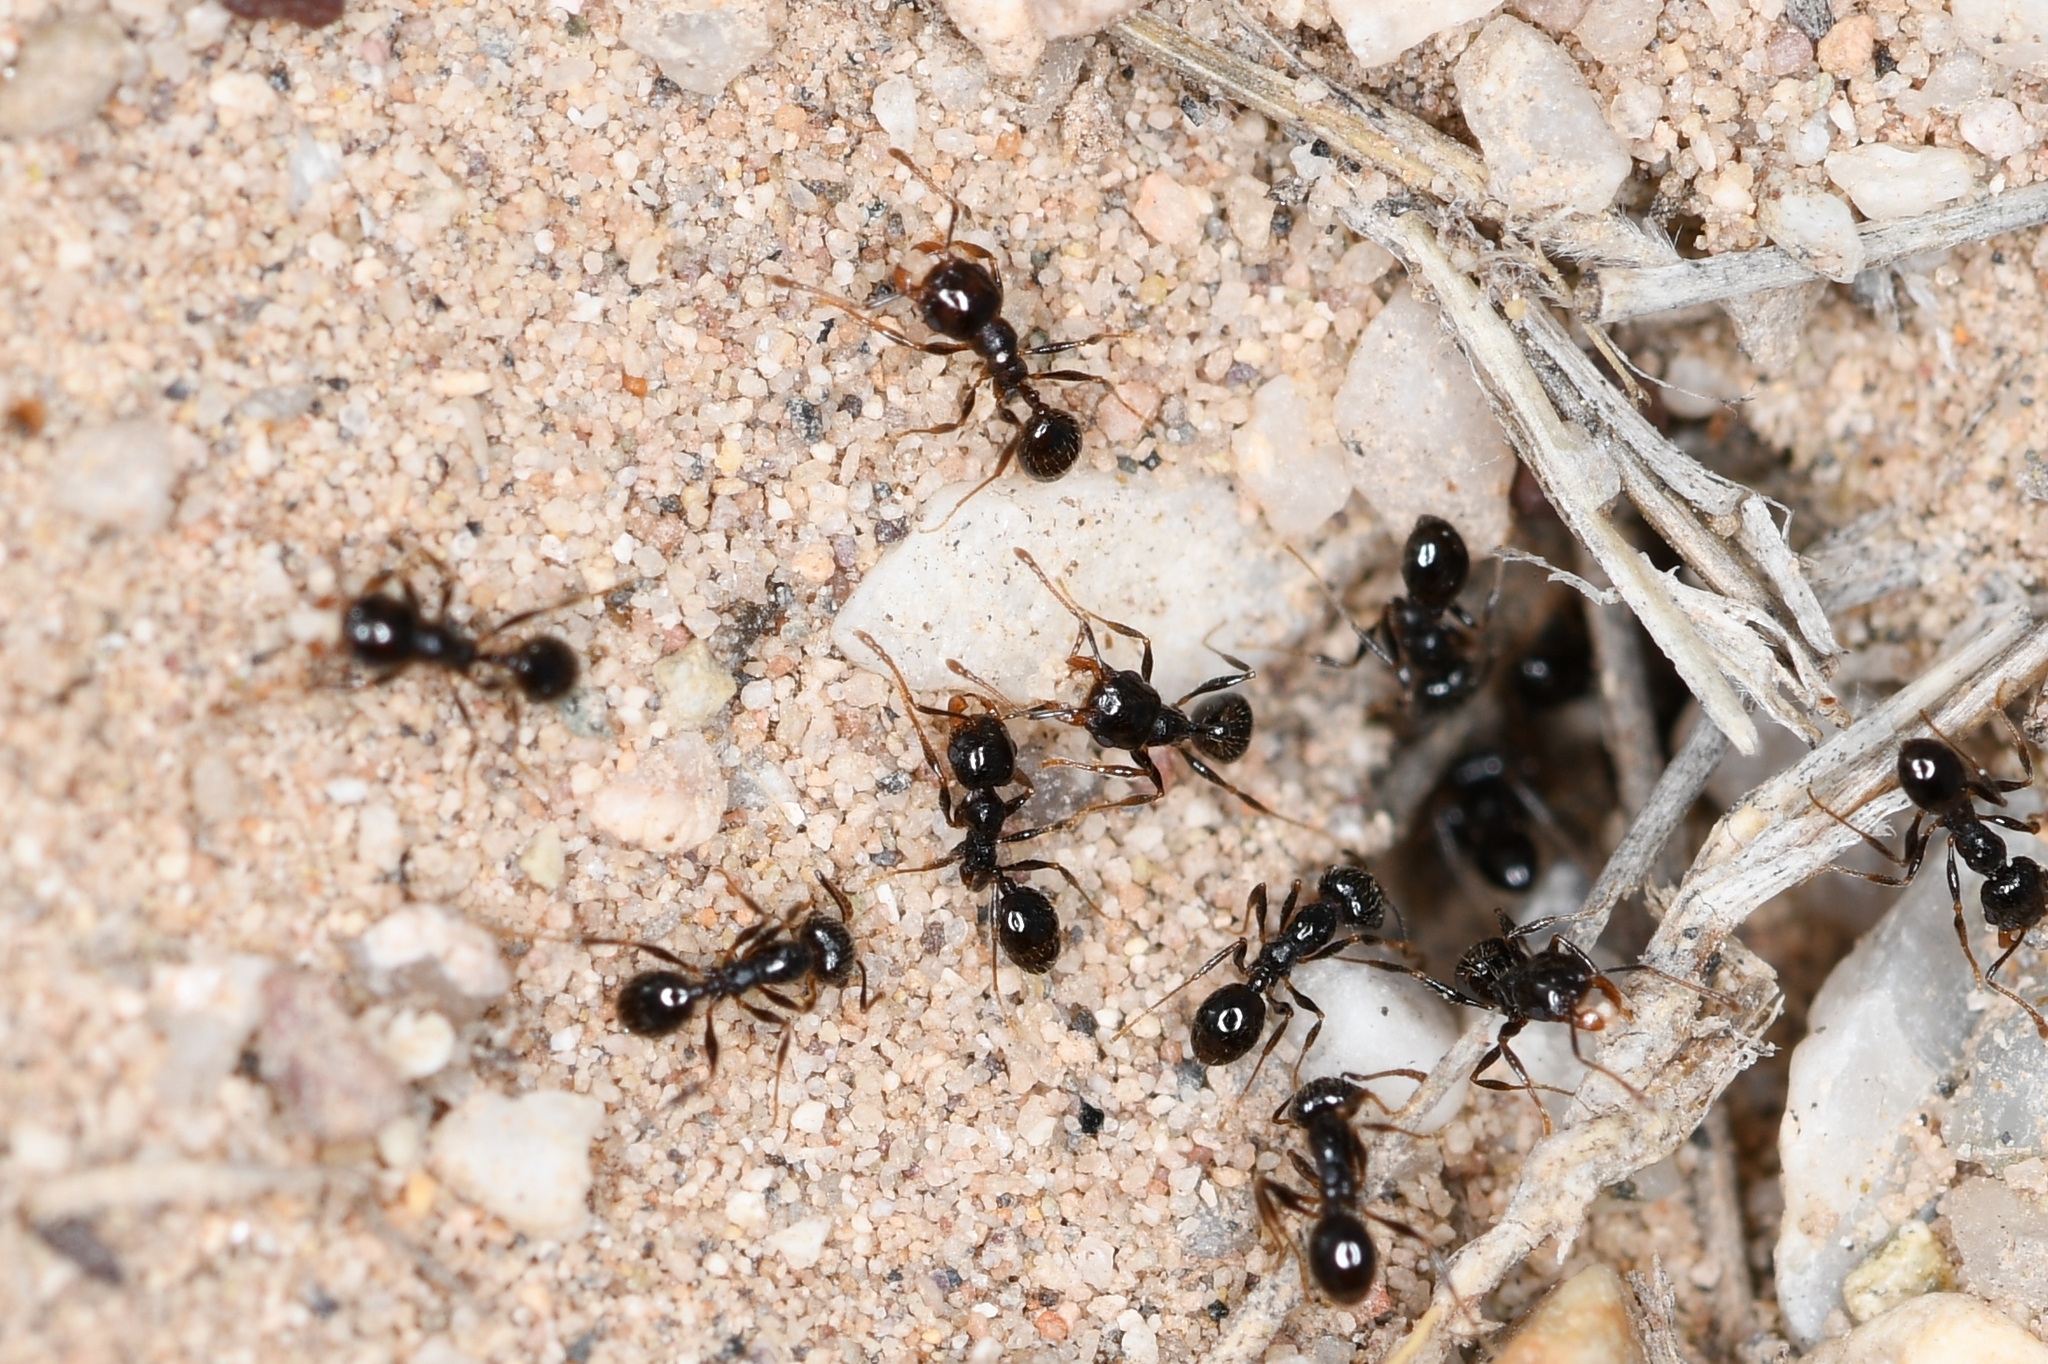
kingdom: Animalia
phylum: Arthropoda
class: Insecta
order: Hymenoptera
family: Formicidae
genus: Pheidole
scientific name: Pheidole xerophila
